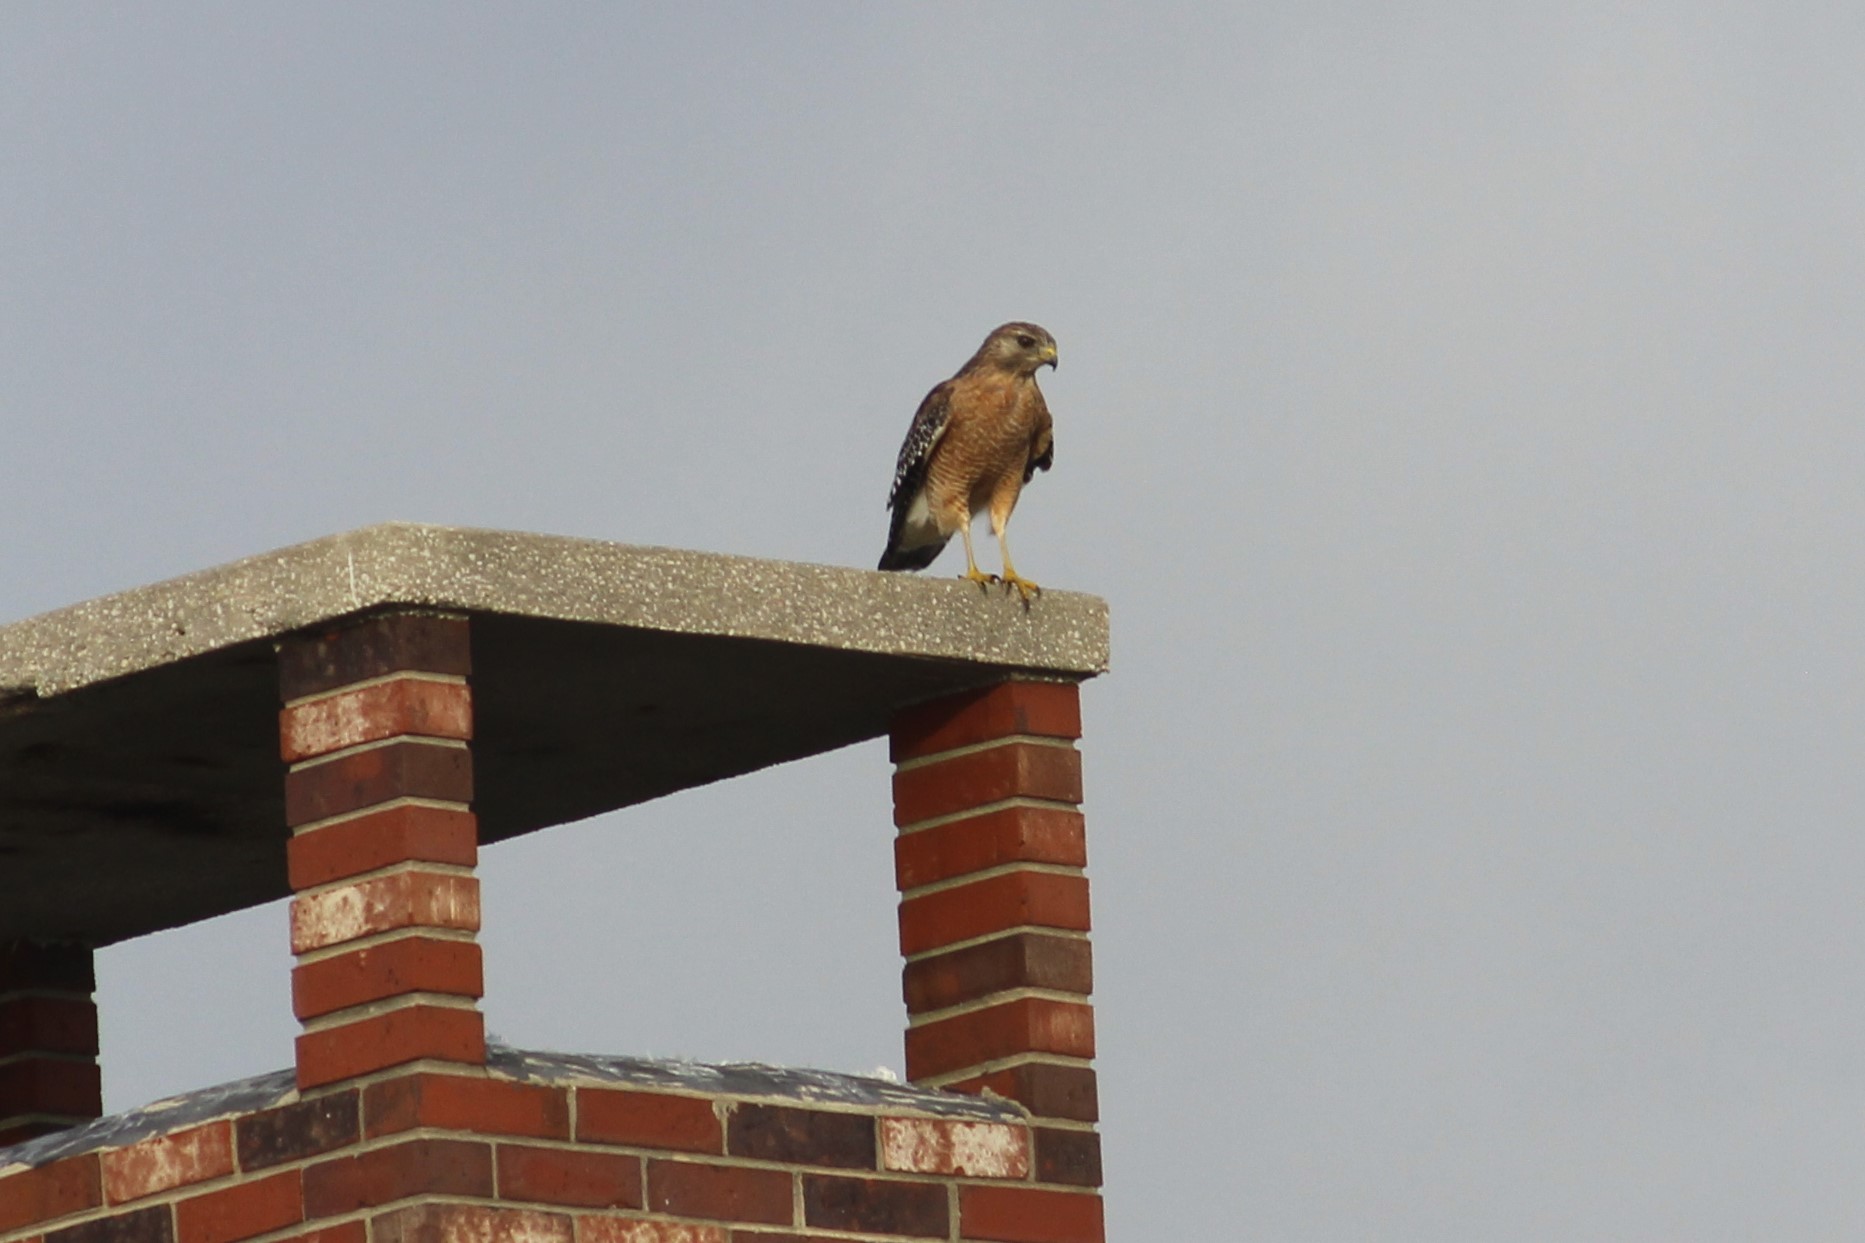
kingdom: Animalia
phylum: Chordata
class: Aves
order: Accipitriformes
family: Accipitridae
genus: Buteo
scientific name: Buteo lineatus
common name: Red-shouldered hawk
